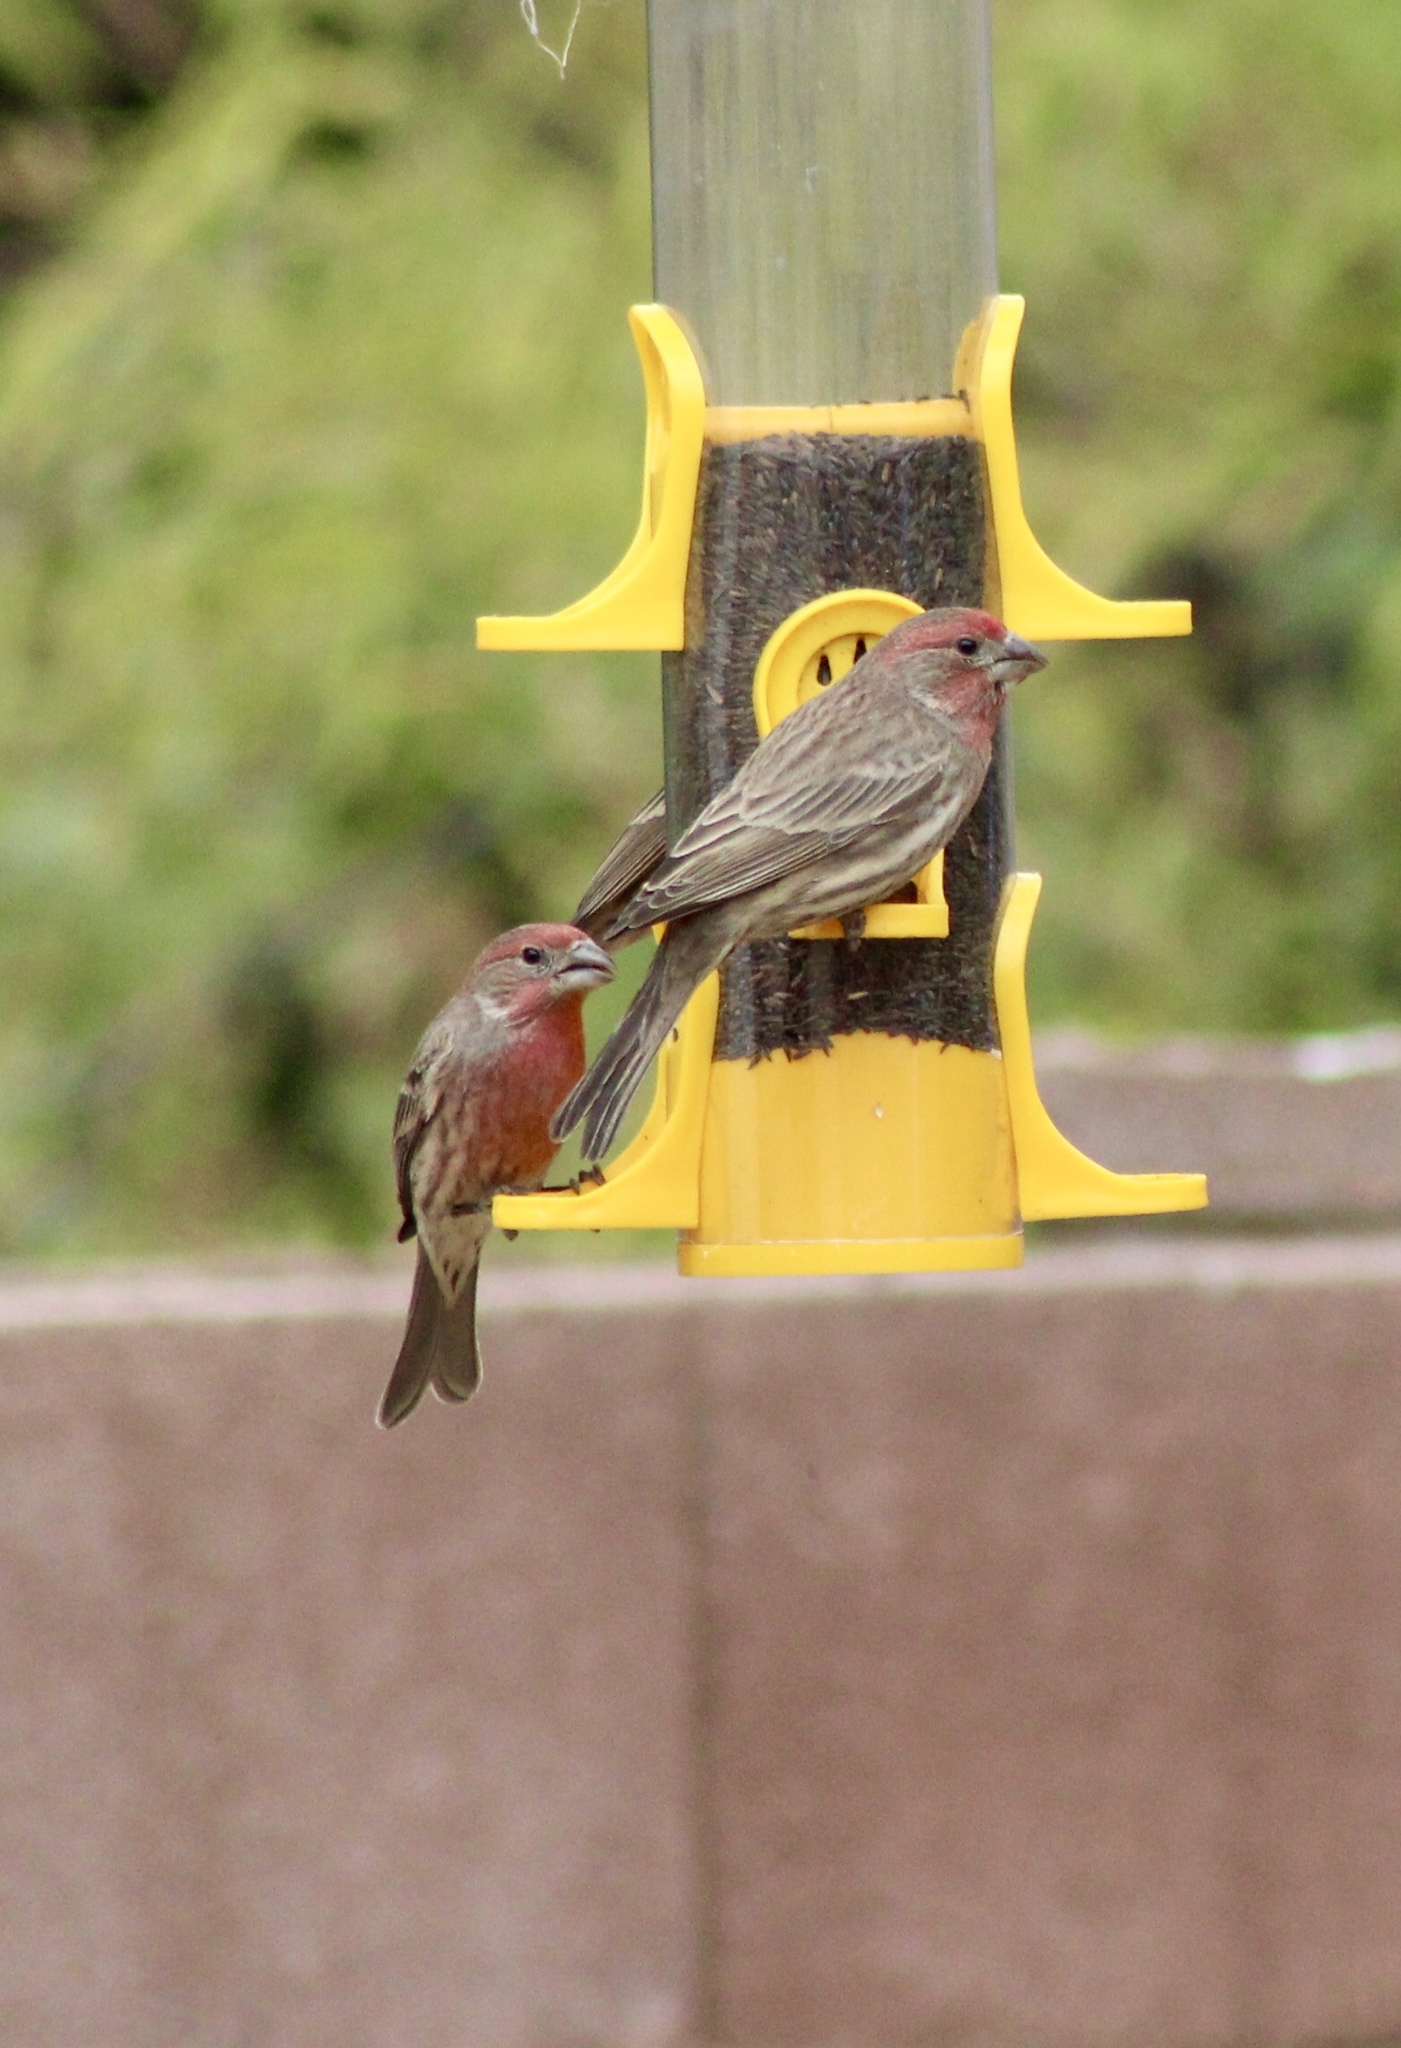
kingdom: Animalia
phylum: Chordata
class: Aves
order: Passeriformes
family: Fringillidae
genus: Haemorhous
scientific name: Haemorhous mexicanus
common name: House finch
